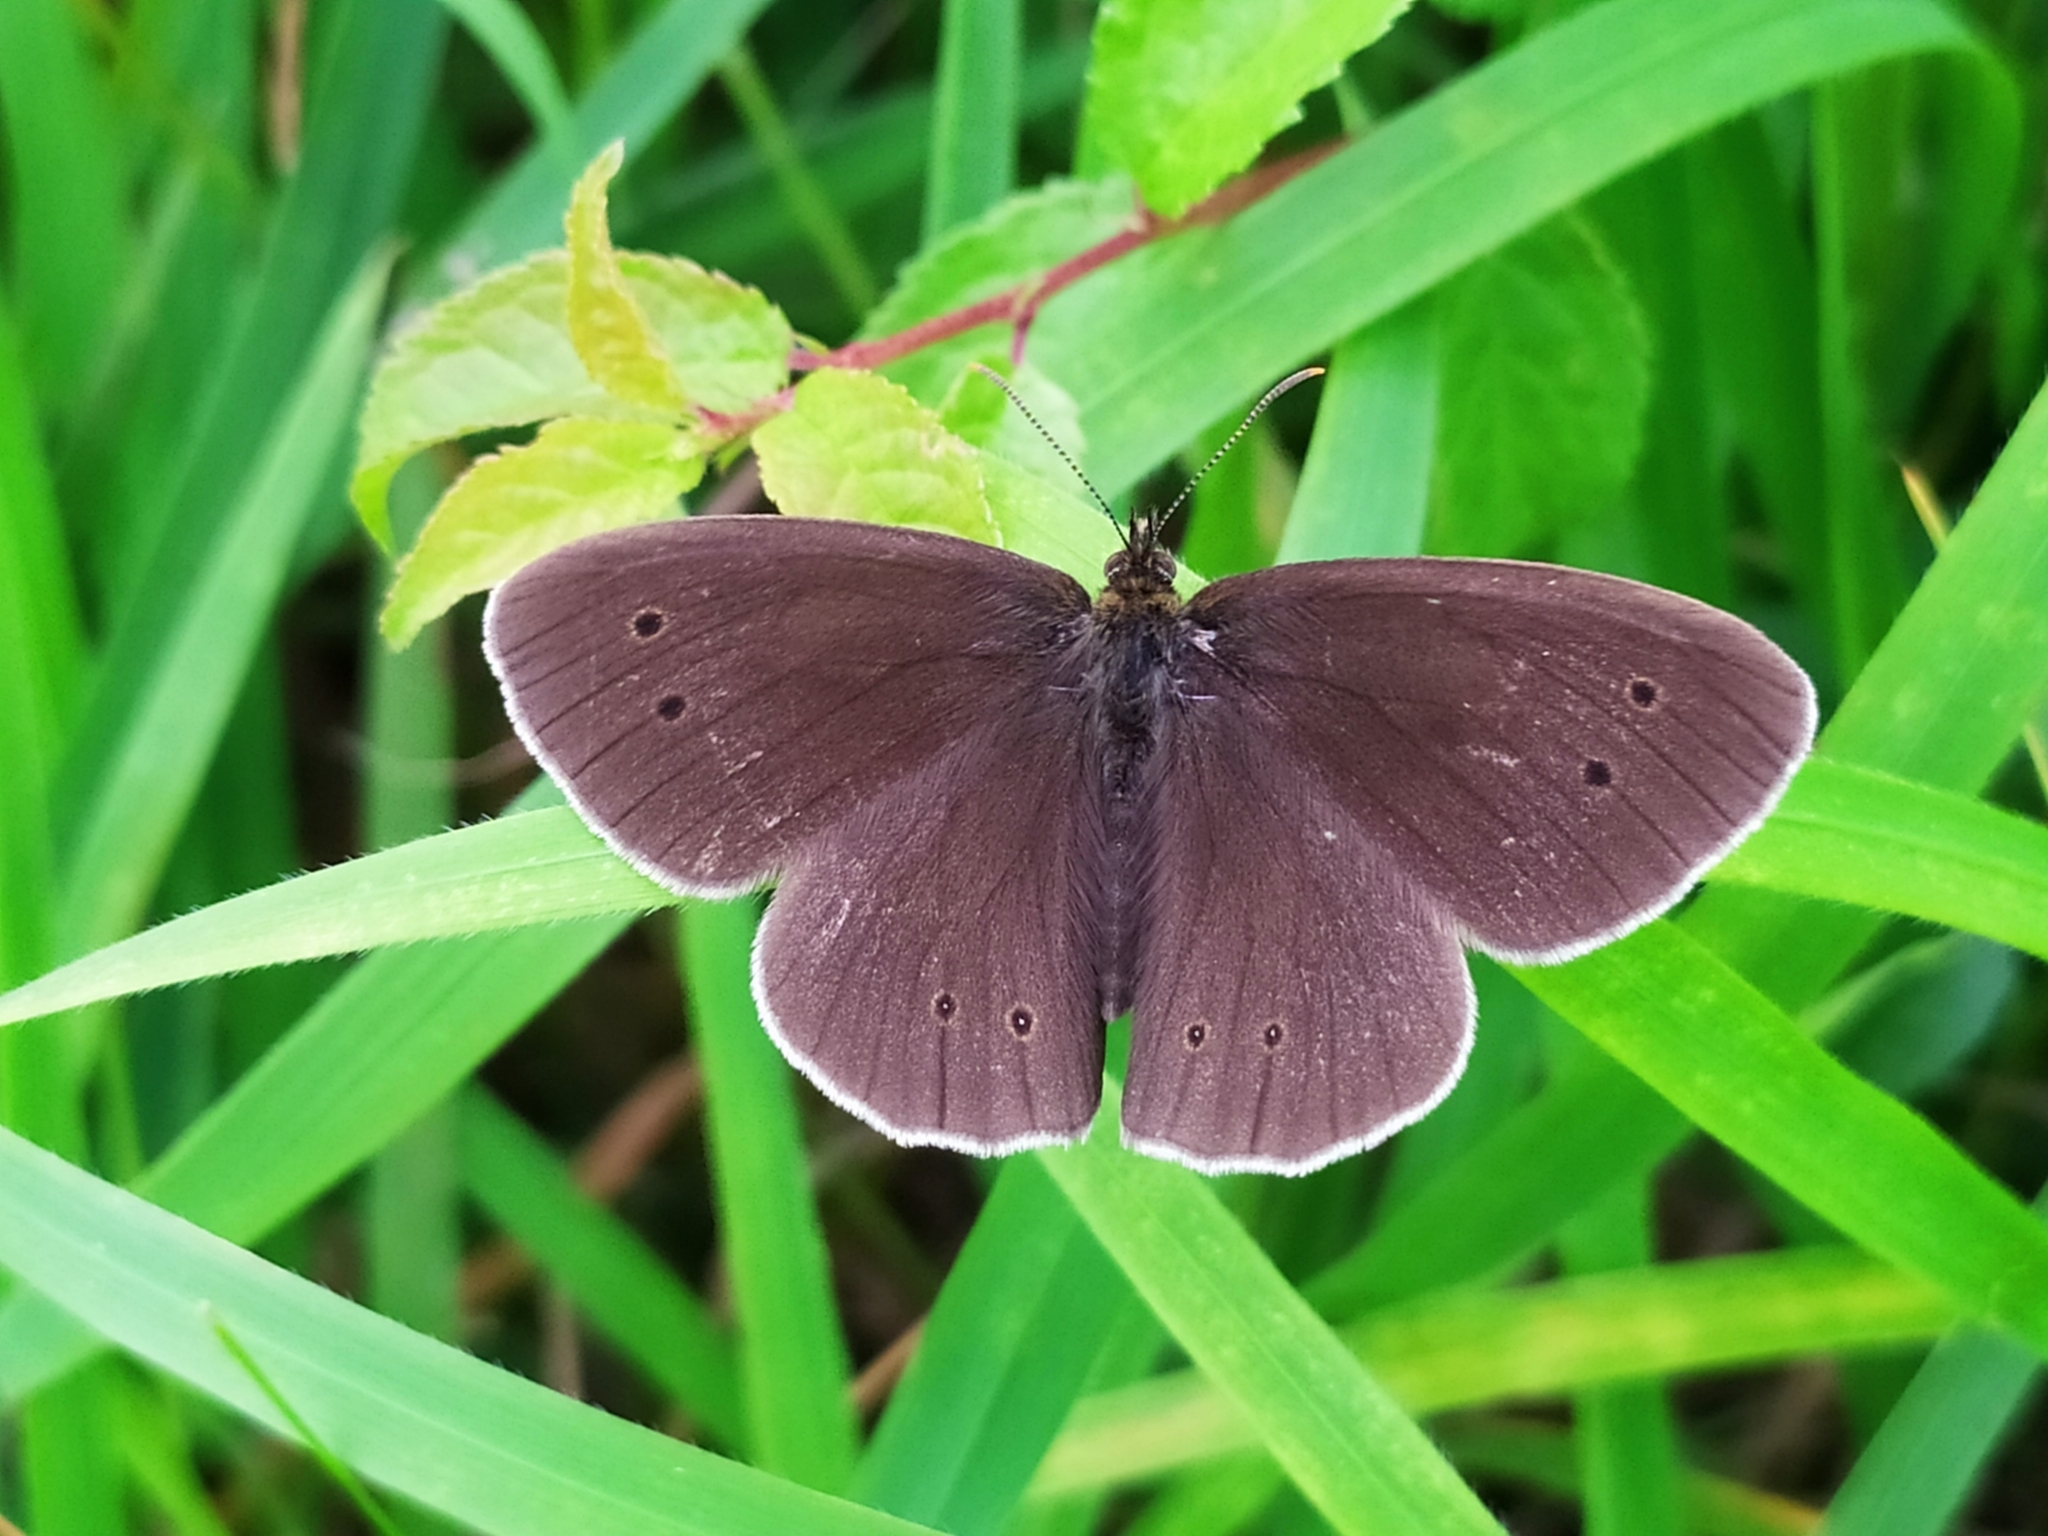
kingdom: Animalia
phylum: Arthropoda
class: Insecta
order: Lepidoptera
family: Nymphalidae
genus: Aphantopus
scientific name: Aphantopus hyperantus
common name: Ringlet
